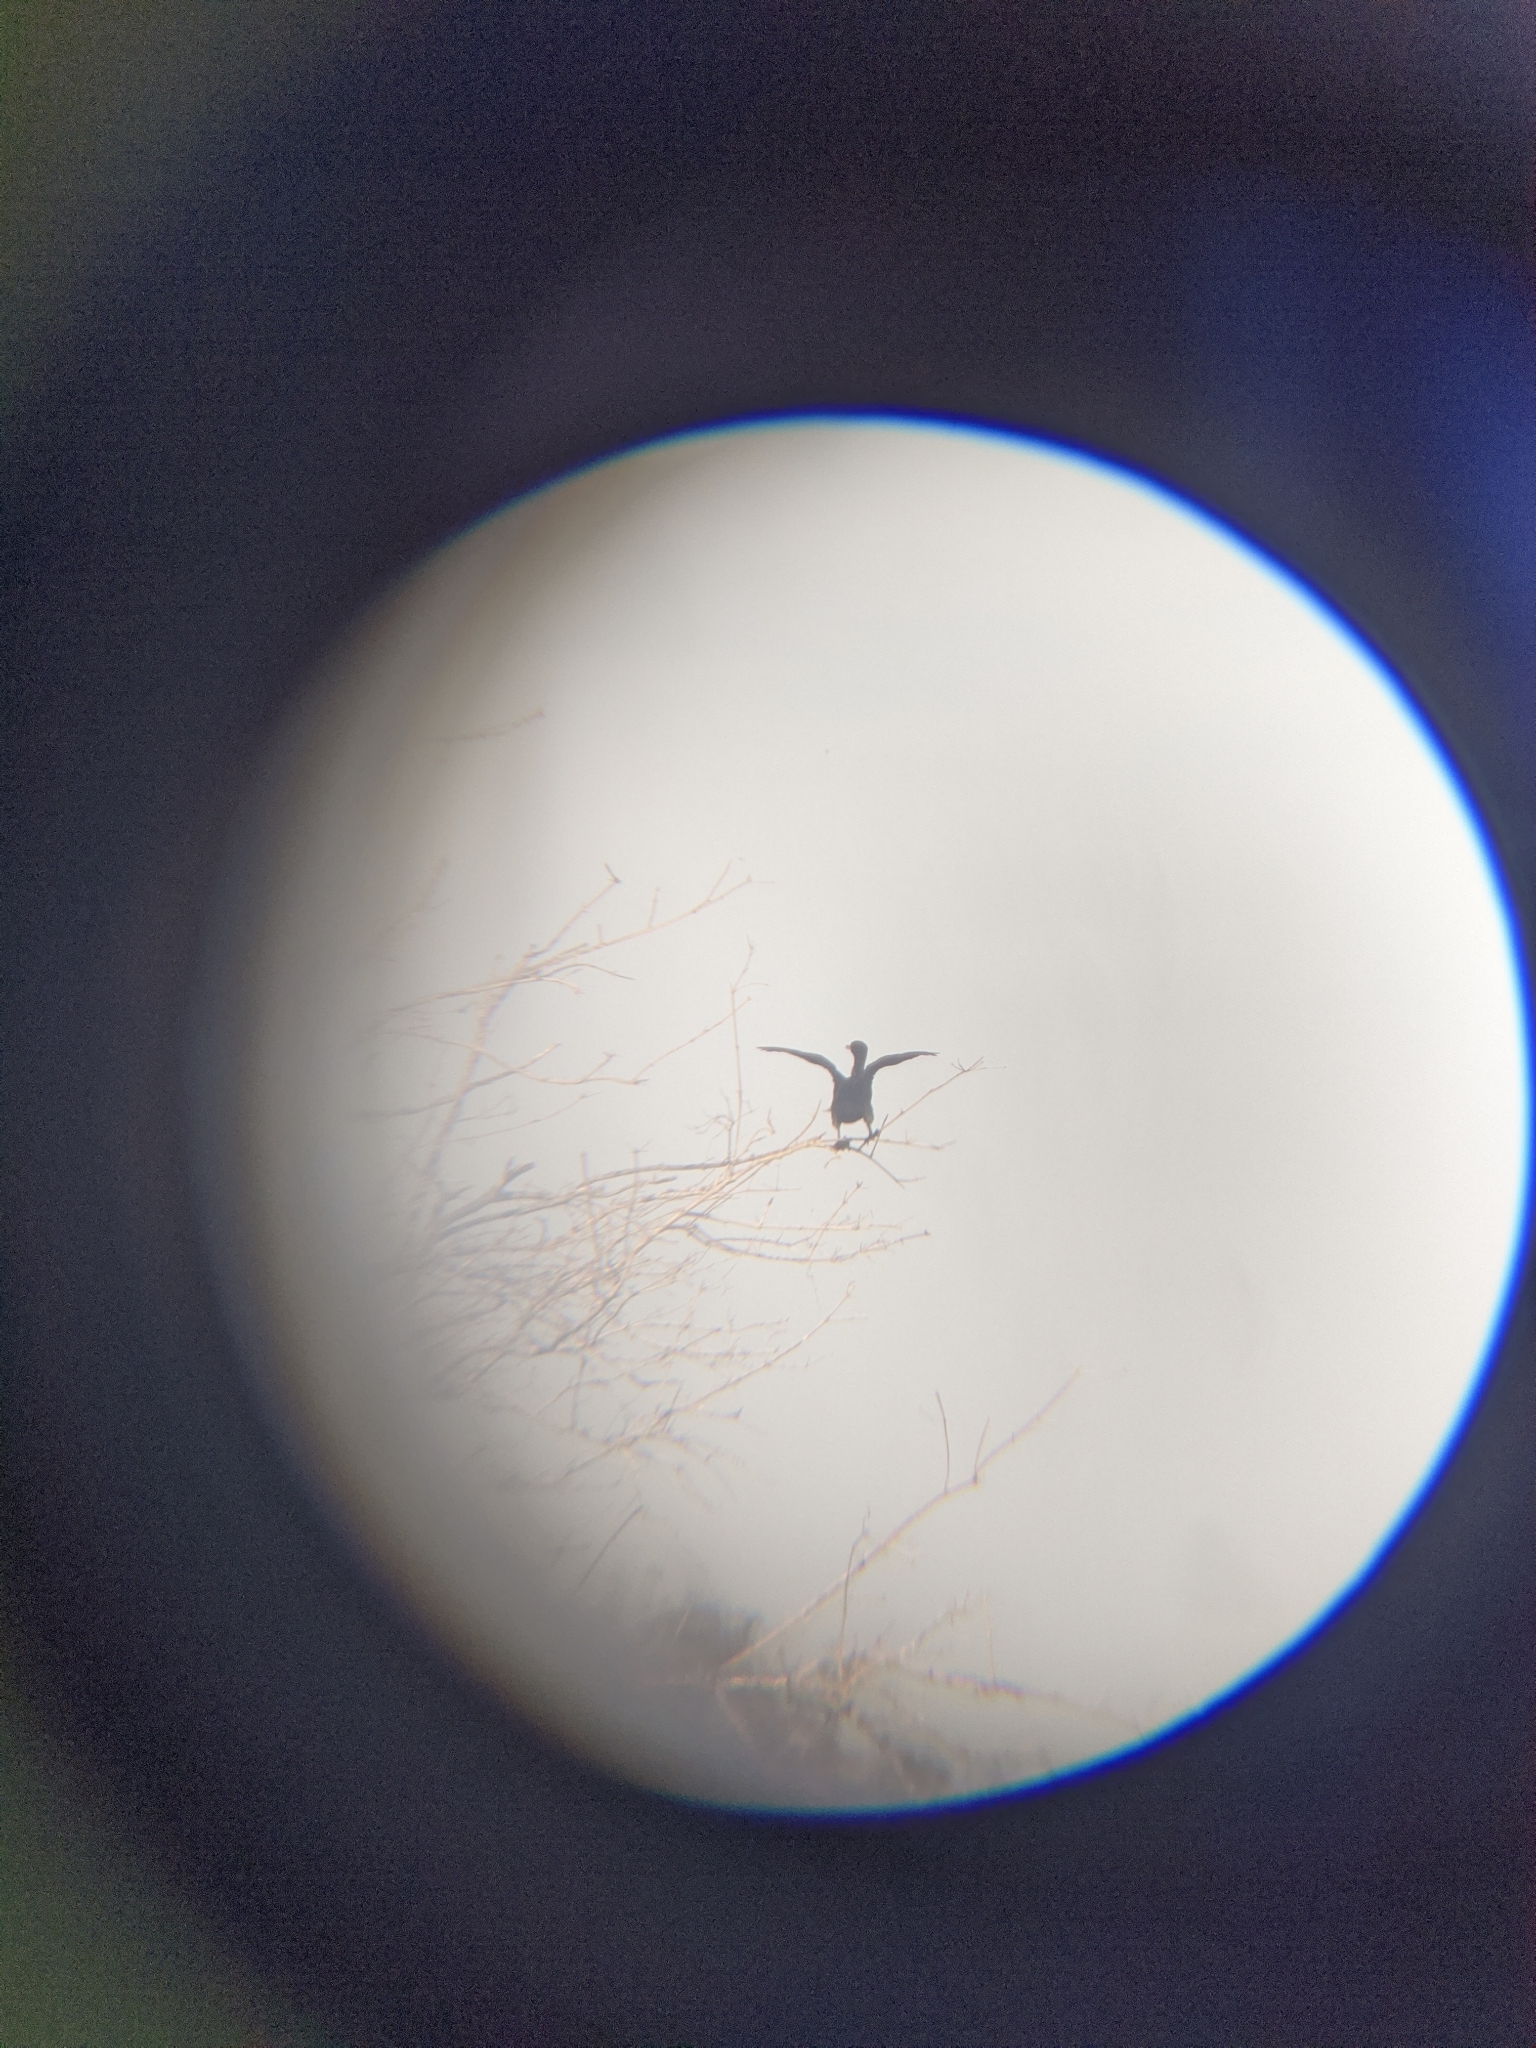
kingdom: Animalia
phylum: Chordata
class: Aves
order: Suliformes
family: Phalacrocoracidae
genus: Phalacrocorax
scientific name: Phalacrocorax brasilianus
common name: Neotropic cormorant
